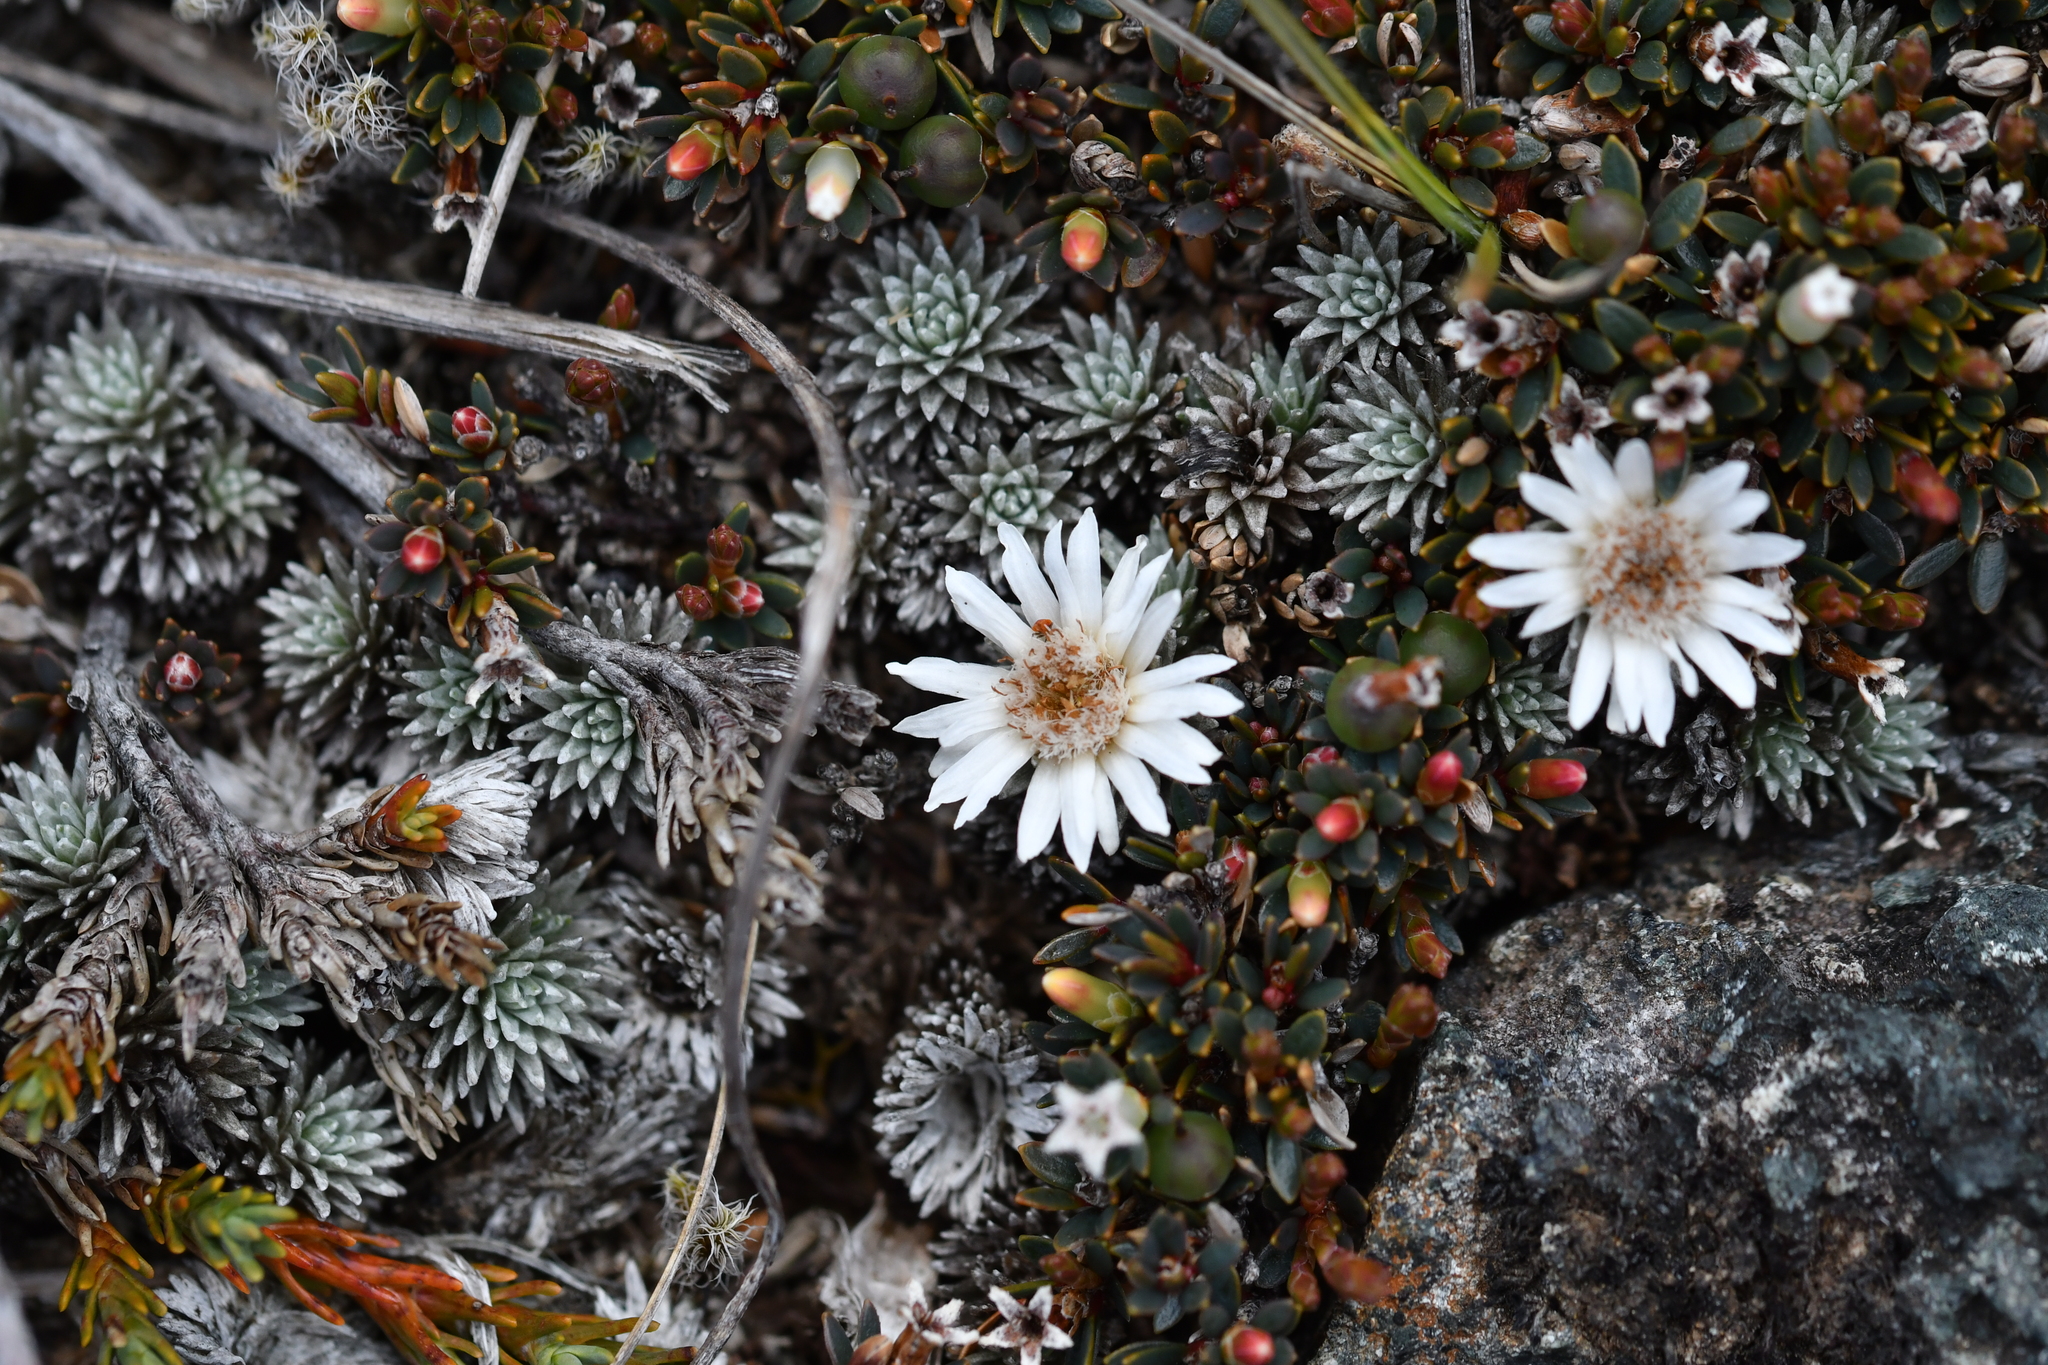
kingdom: Plantae
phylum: Tracheophyta
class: Magnoliopsida
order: Asterales
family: Asteraceae
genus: Raoulia
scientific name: Raoulia grandiflora
